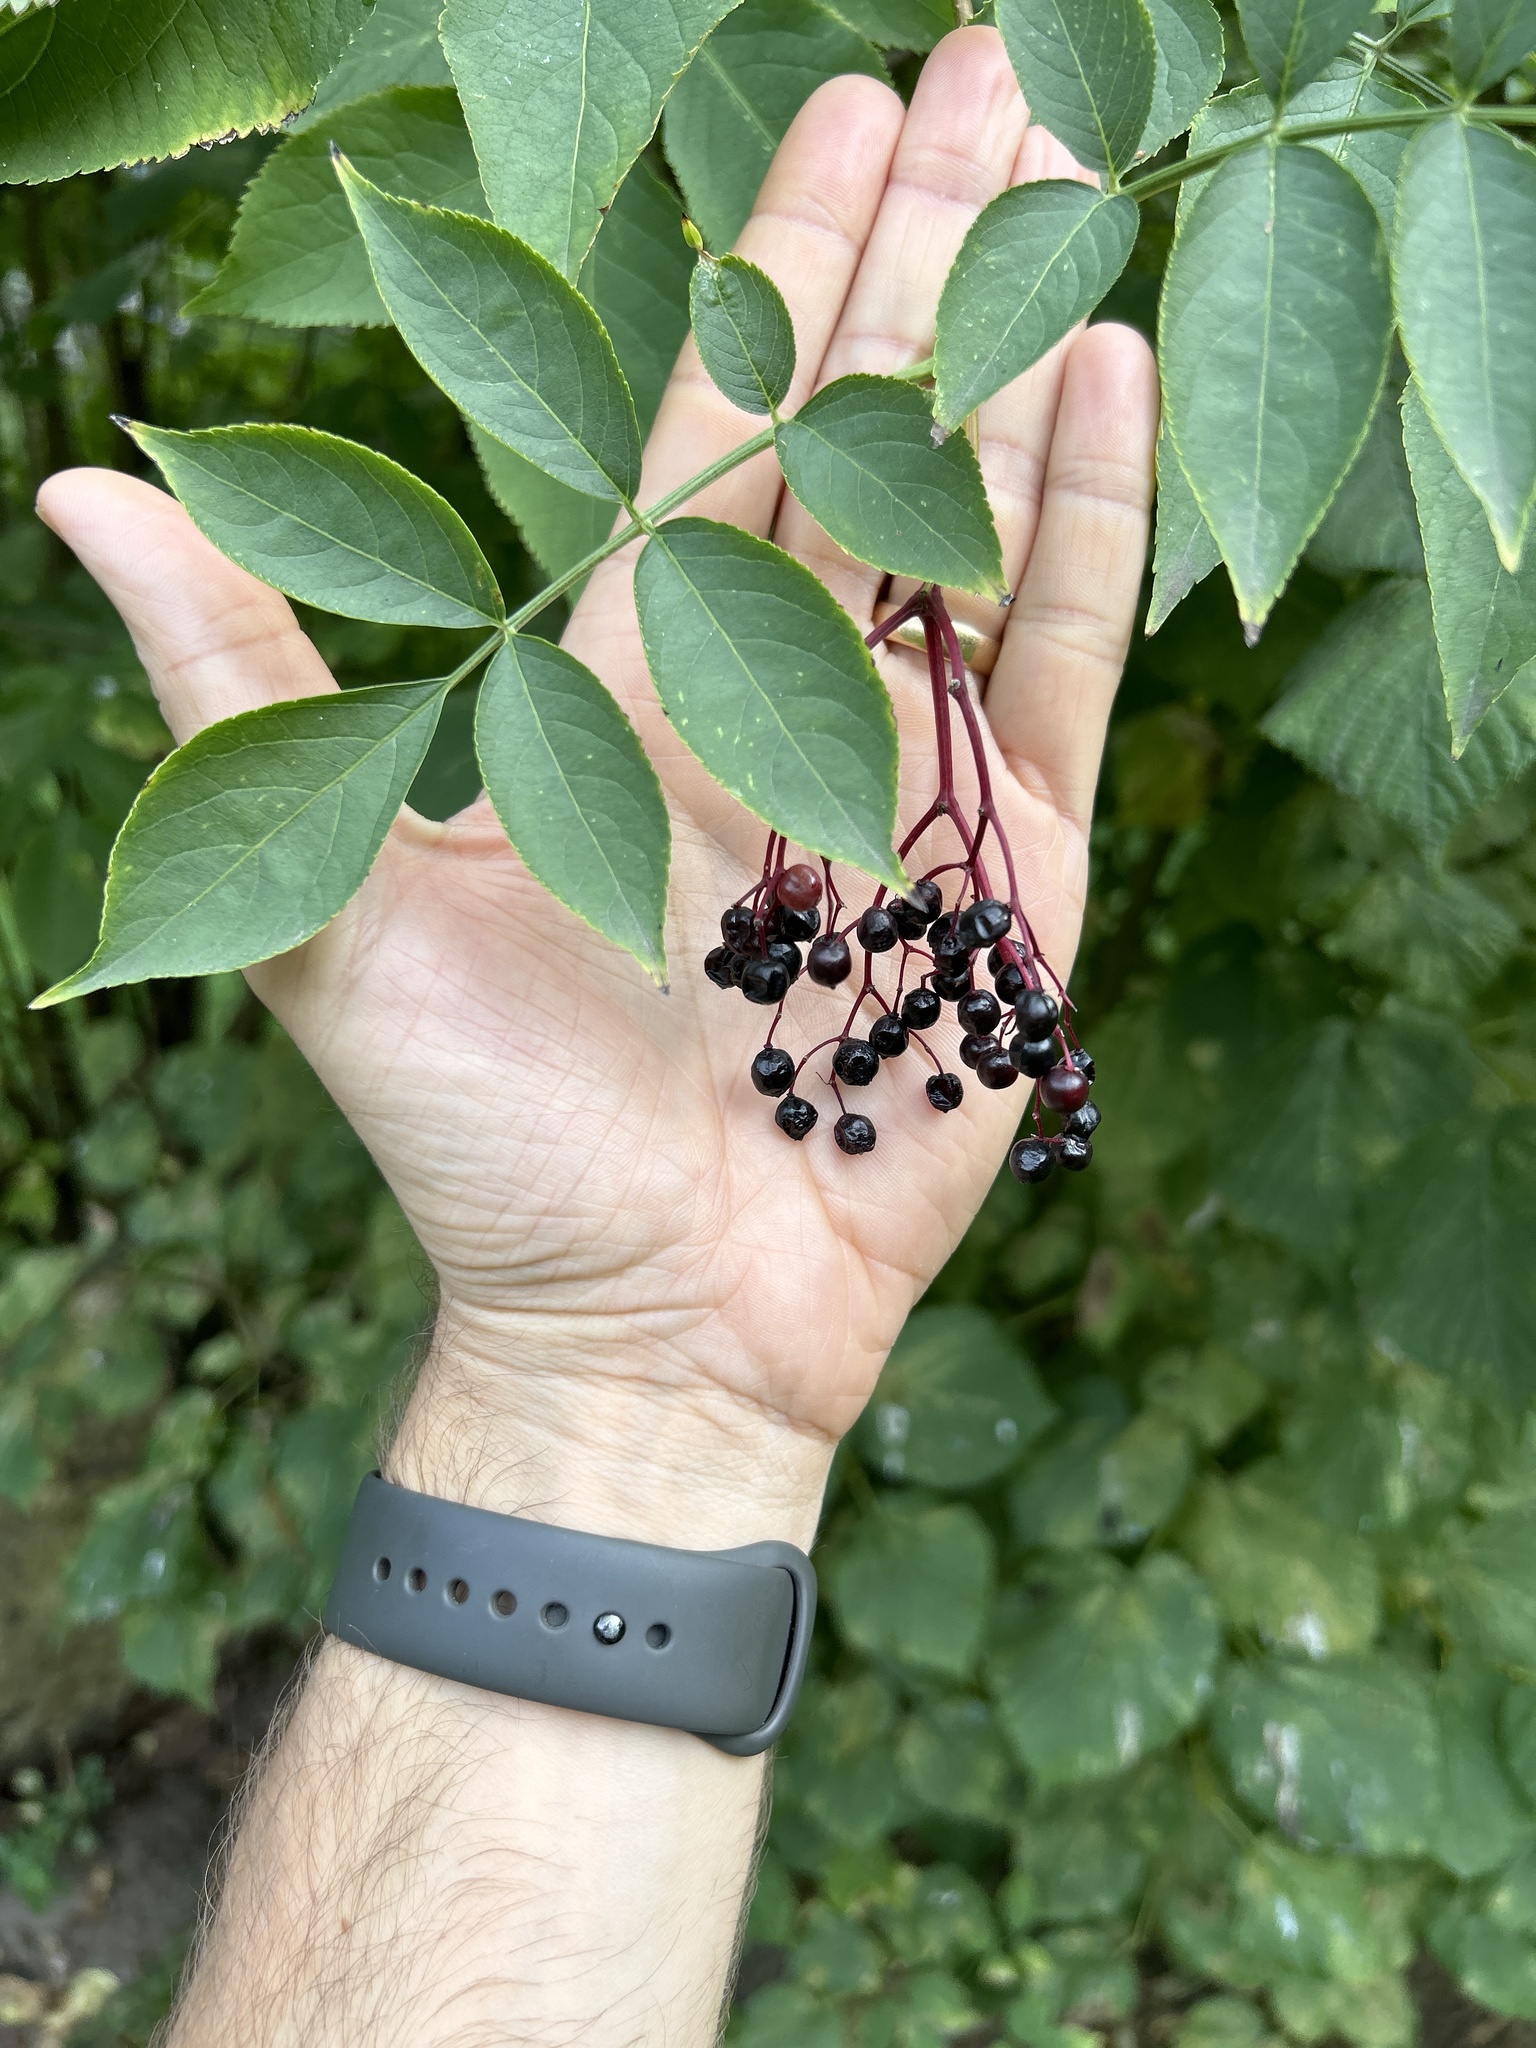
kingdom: Plantae
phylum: Tracheophyta
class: Magnoliopsida
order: Dipsacales
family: Viburnaceae
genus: Sambucus
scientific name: Sambucus nigra
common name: Elder
